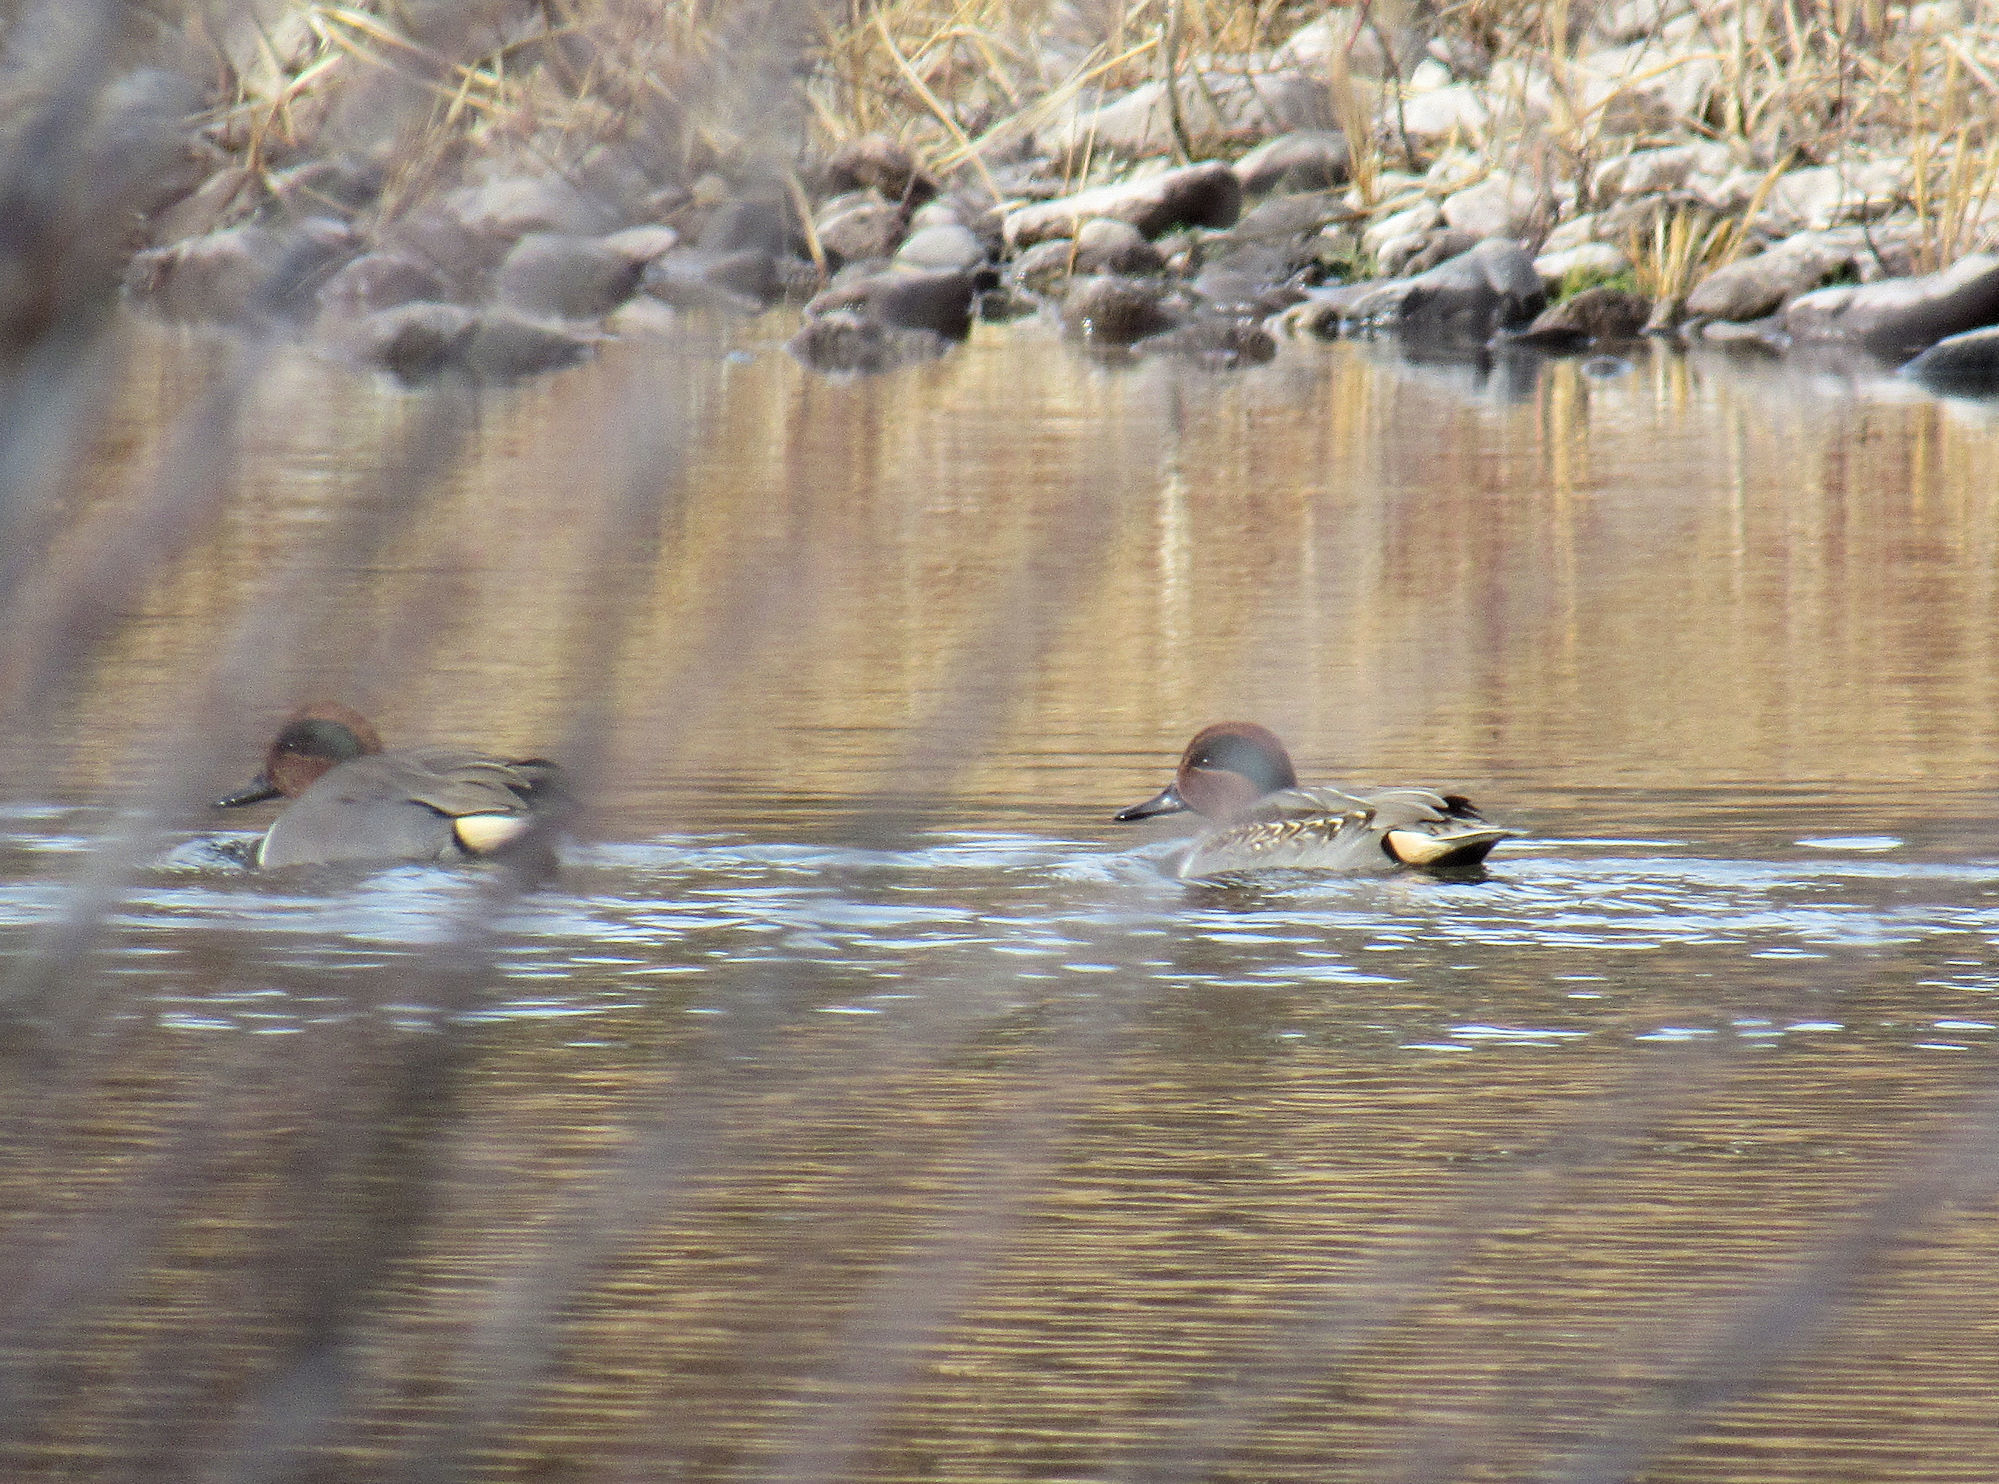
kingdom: Animalia
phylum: Chordata
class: Aves
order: Anseriformes
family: Anatidae
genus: Anas
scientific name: Anas crecca
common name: Eurasian teal
